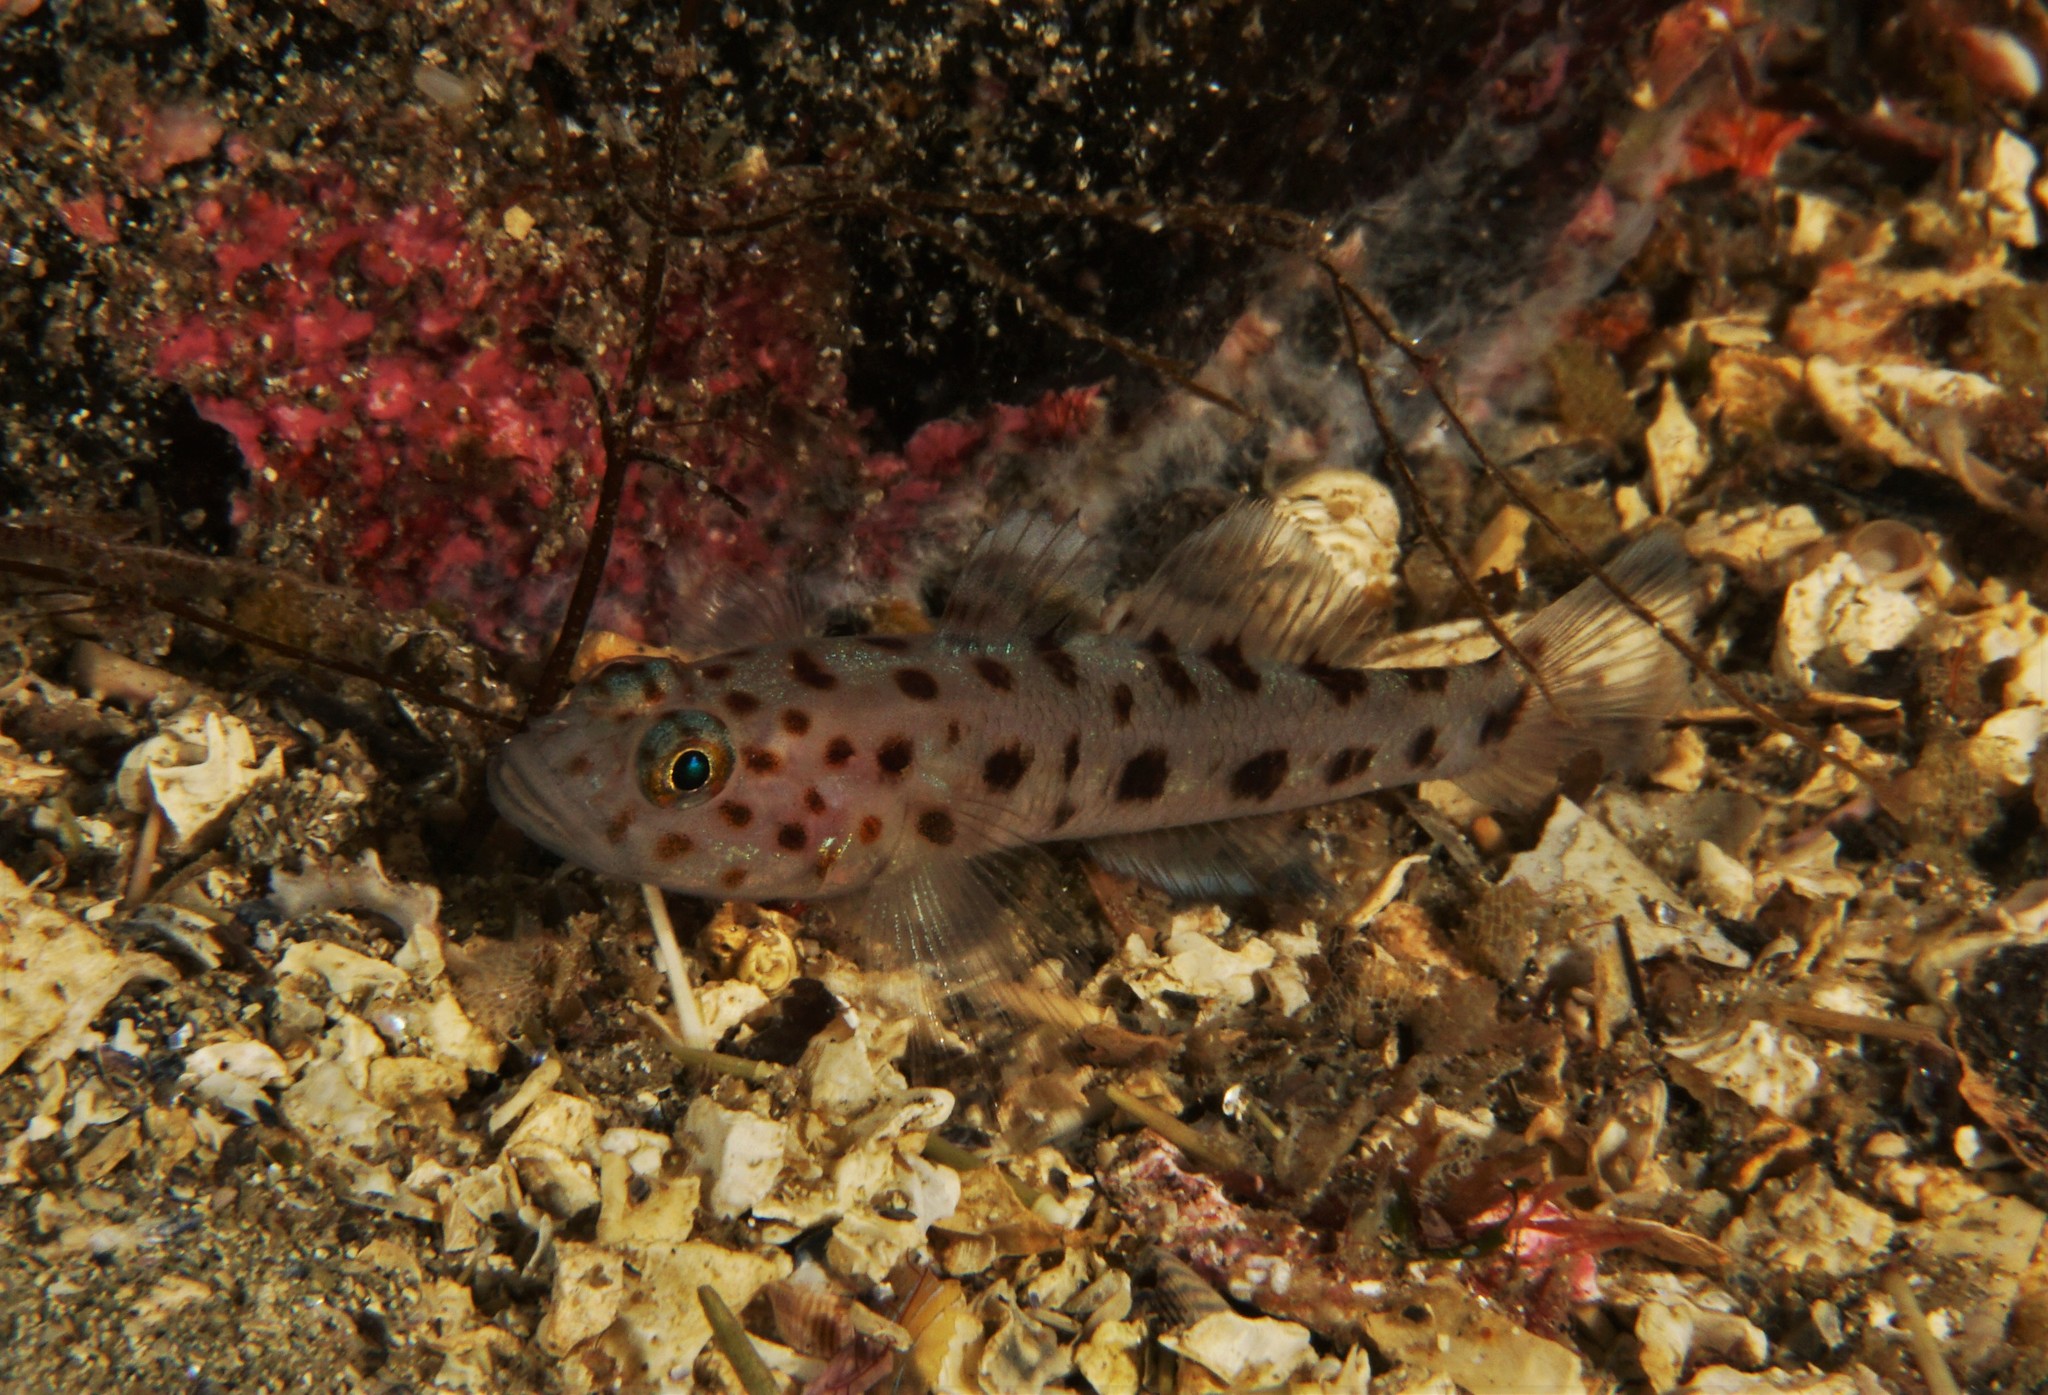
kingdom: Animalia
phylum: Chordata
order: Perciformes
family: Gobiidae
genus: Thorogobius
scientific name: Thorogobius ephippiatus
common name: Leopard-spotted goby
